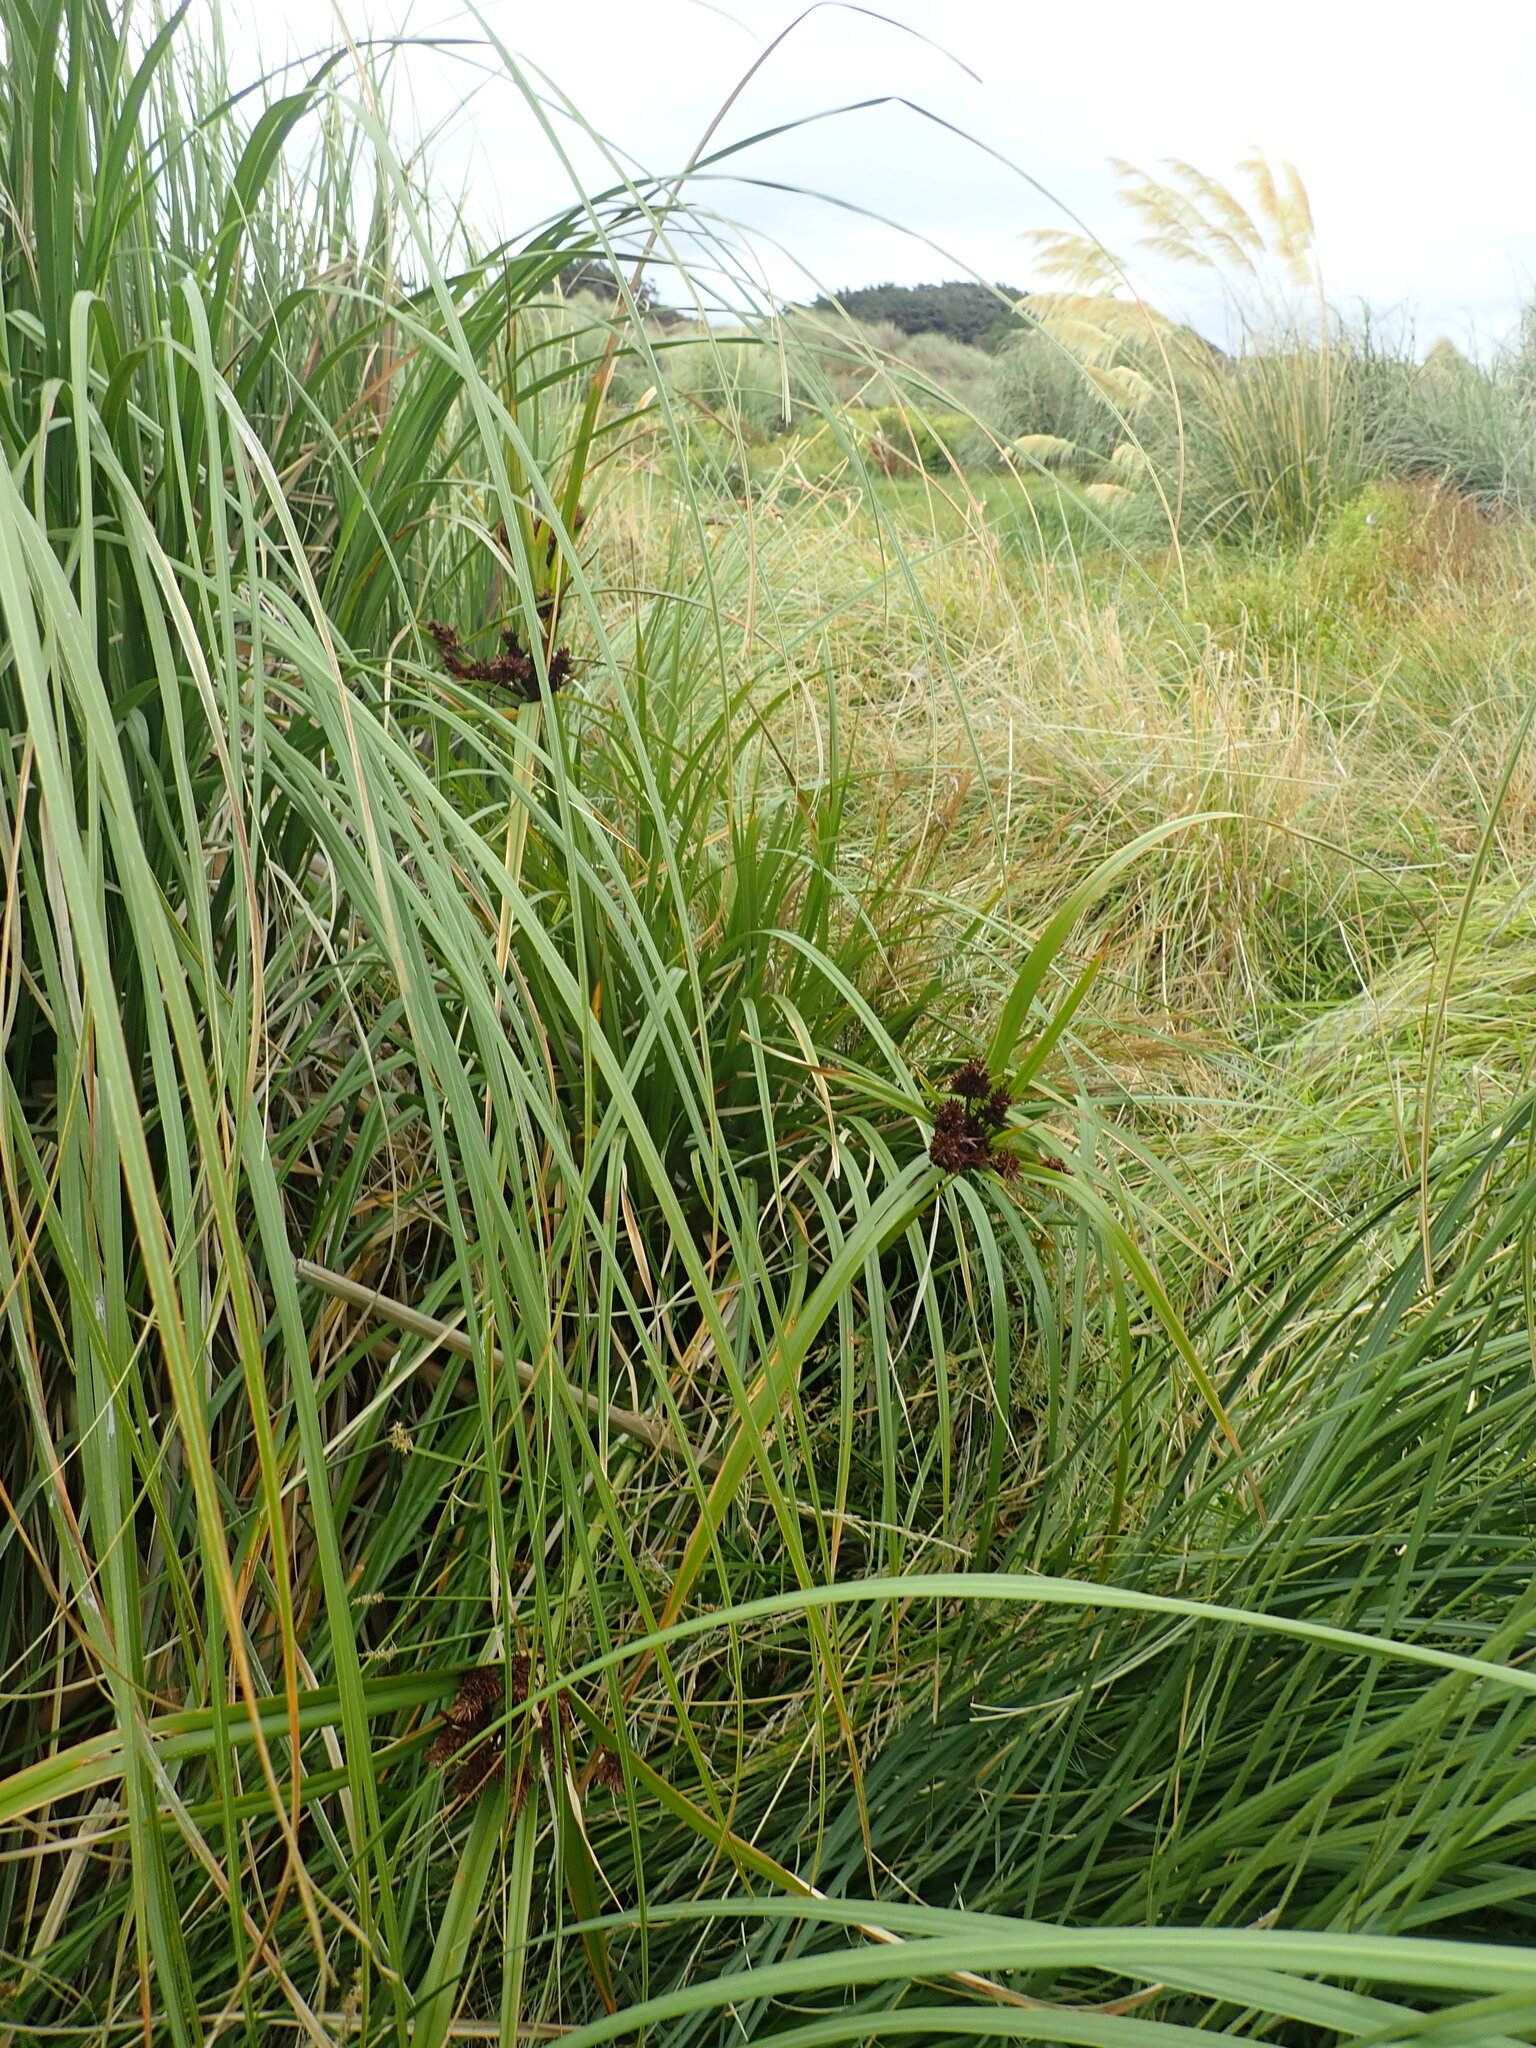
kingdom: Plantae
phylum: Tracheophyta
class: Liliopsida
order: Poales
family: Cyperaceae
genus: Cyperus
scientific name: Cyperus ustulatus
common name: Giant umbrella-sedge
